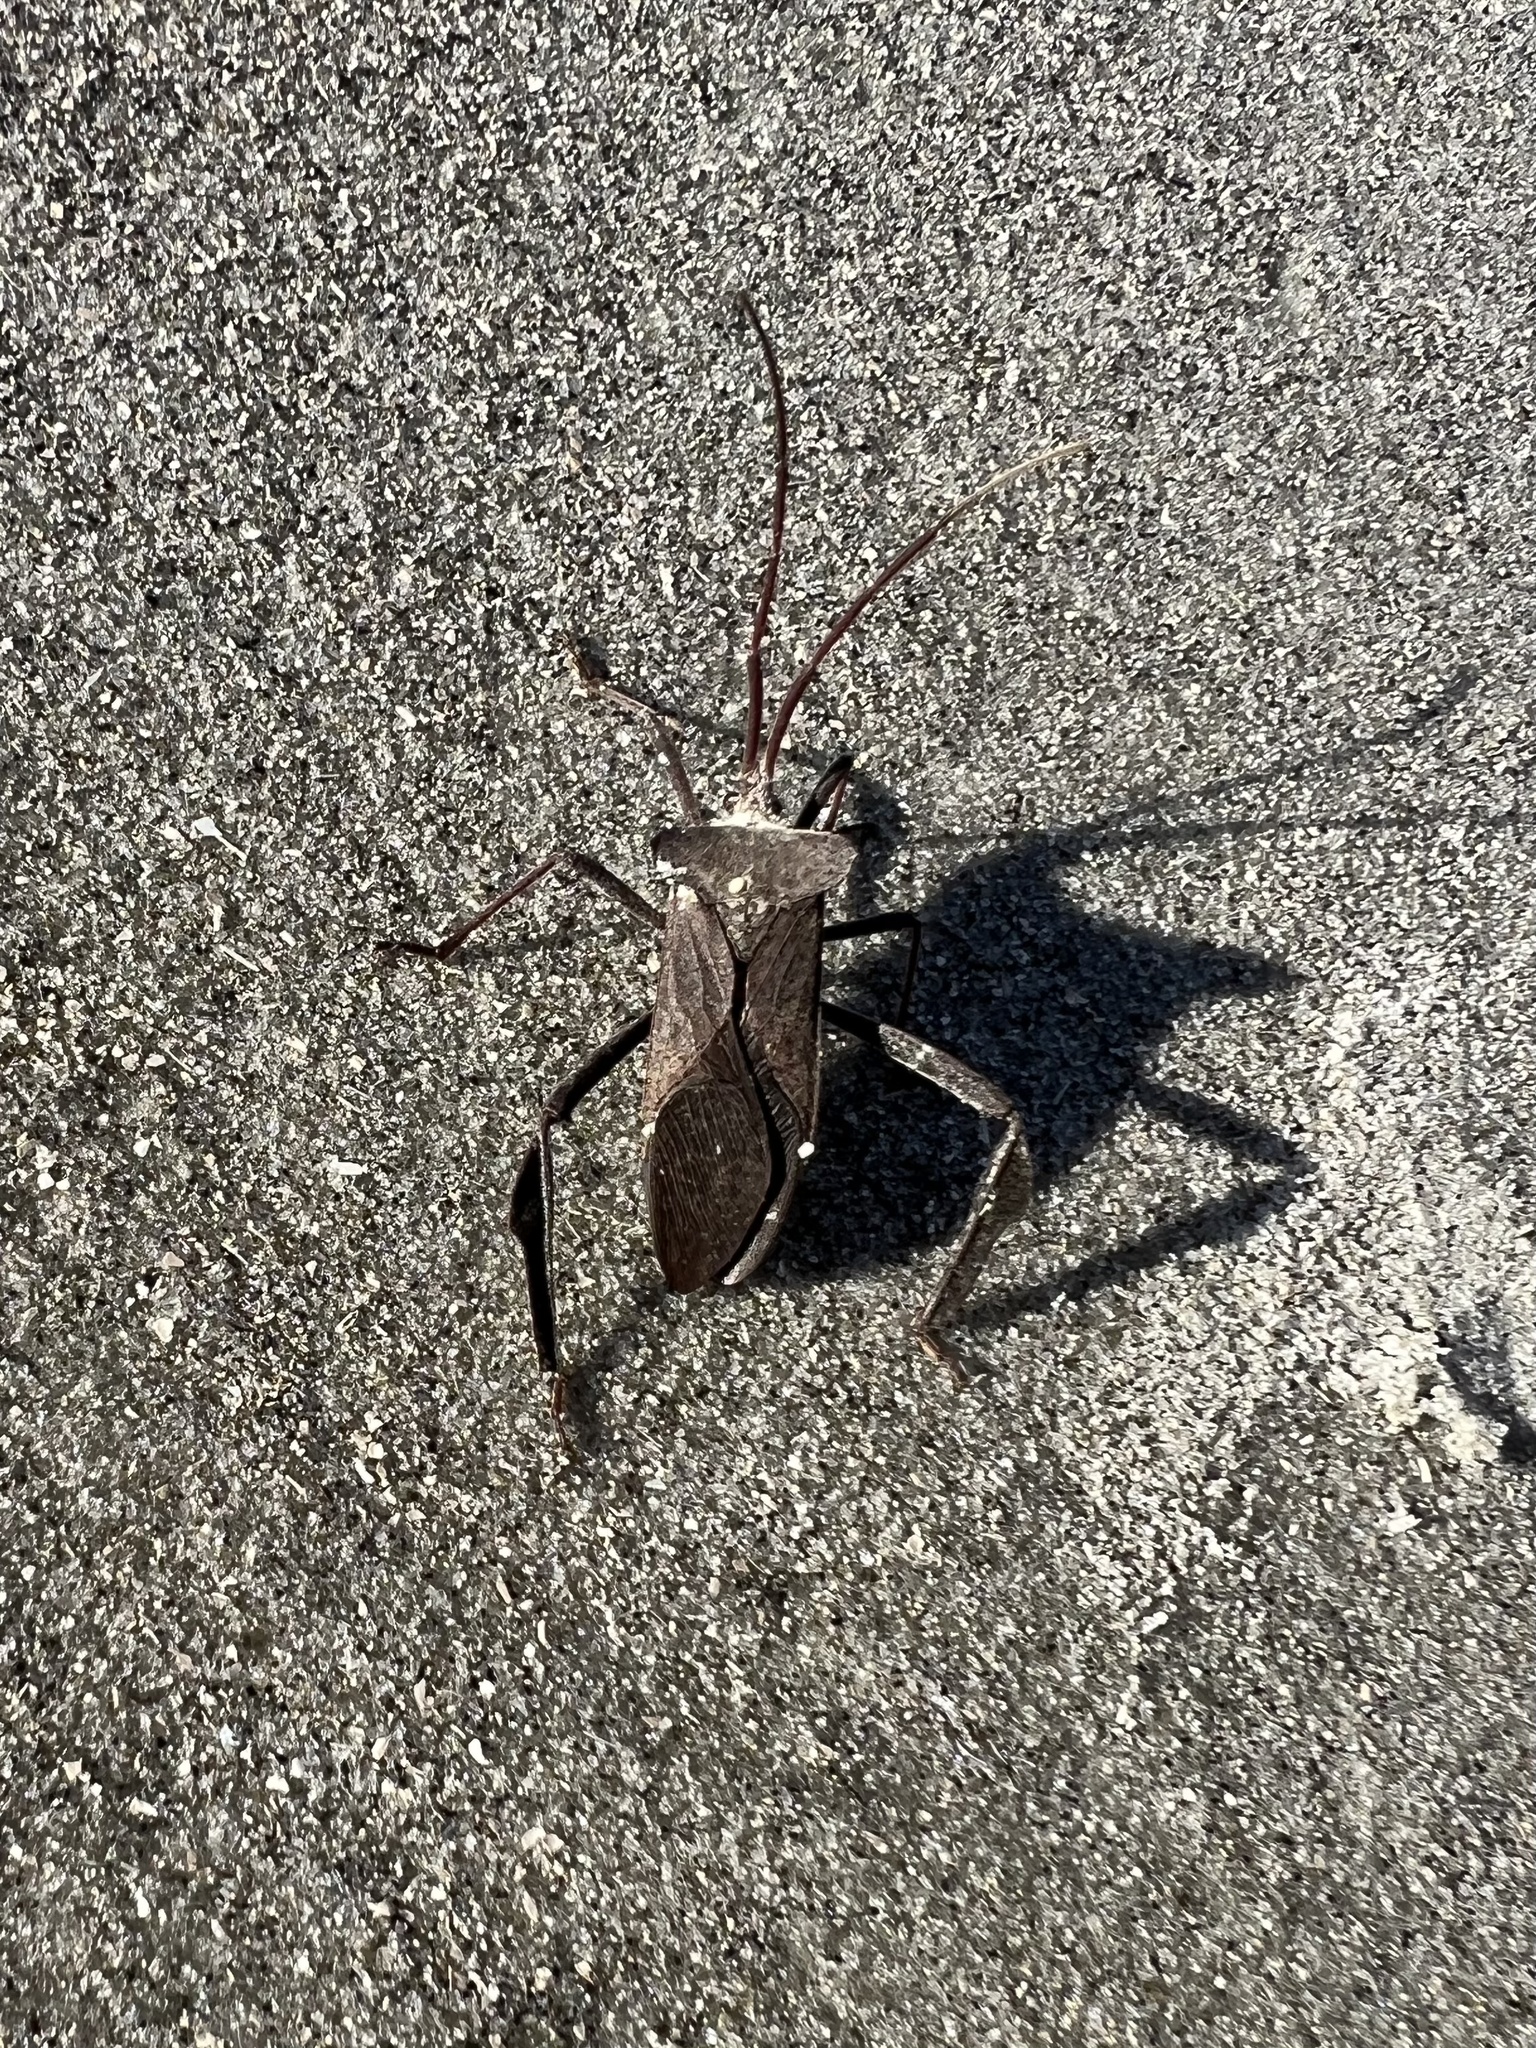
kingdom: Animalia
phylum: Arthropoda
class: Insecta
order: Hemiptera
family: Coreidae
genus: Acanthocephala
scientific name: Acanthocephala declivis
